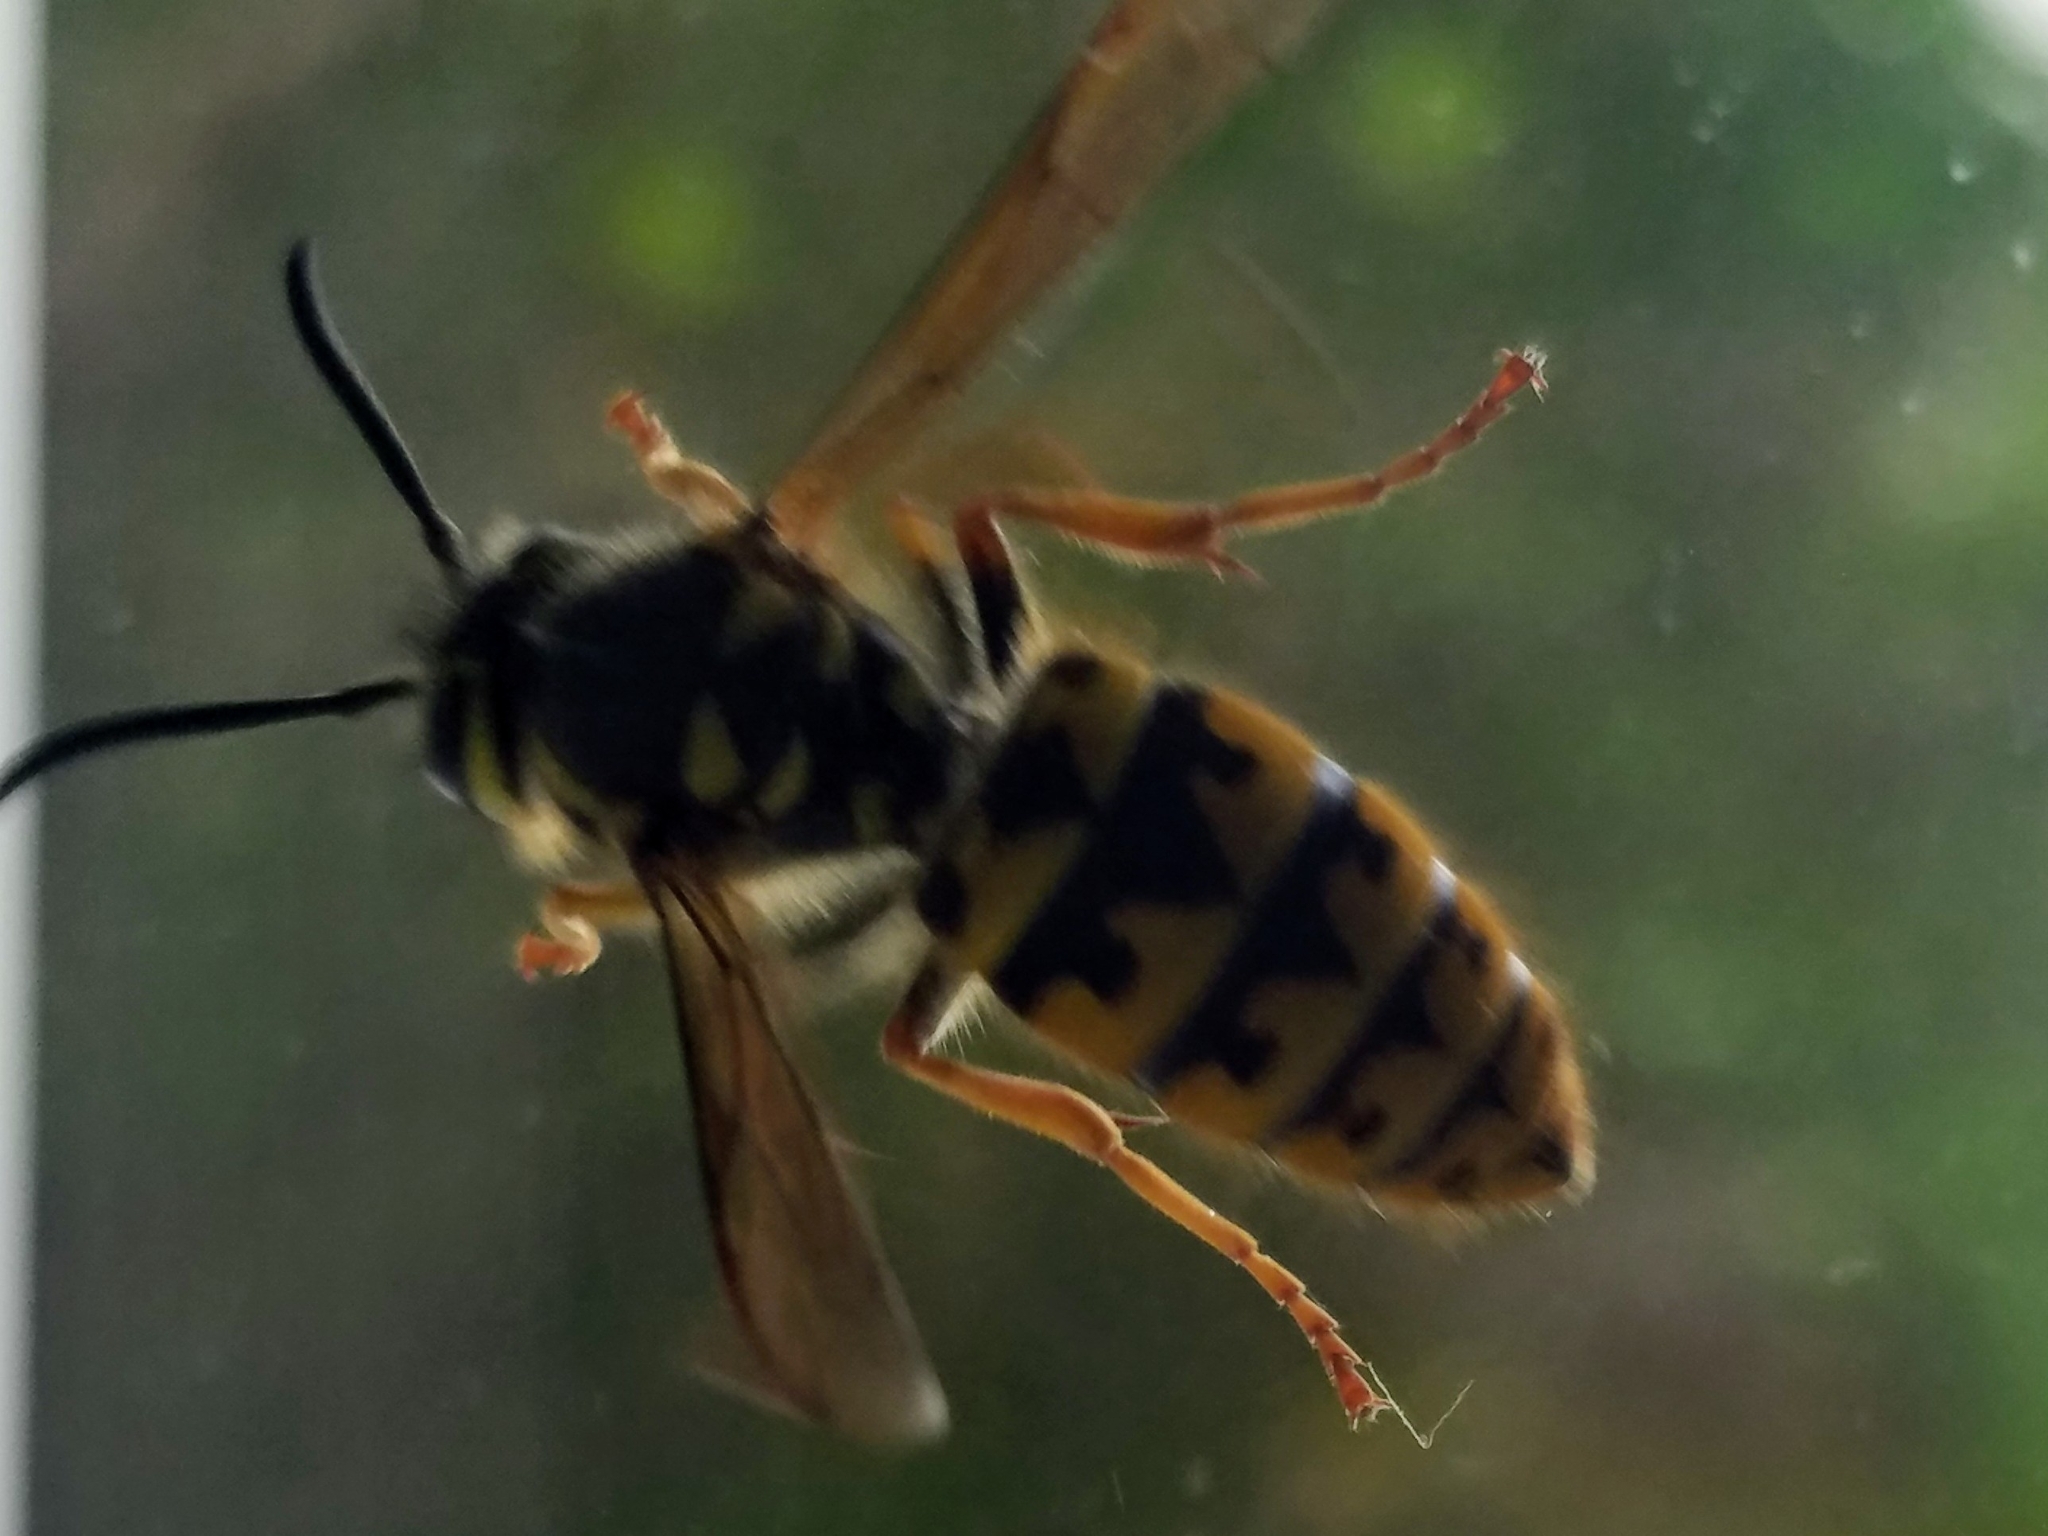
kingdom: Animalia
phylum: Arthropoda
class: Insecta
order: Hymenoptera
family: Vespidae
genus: Vespula
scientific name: Vespula pensylvanica
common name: Western yellowjacket
